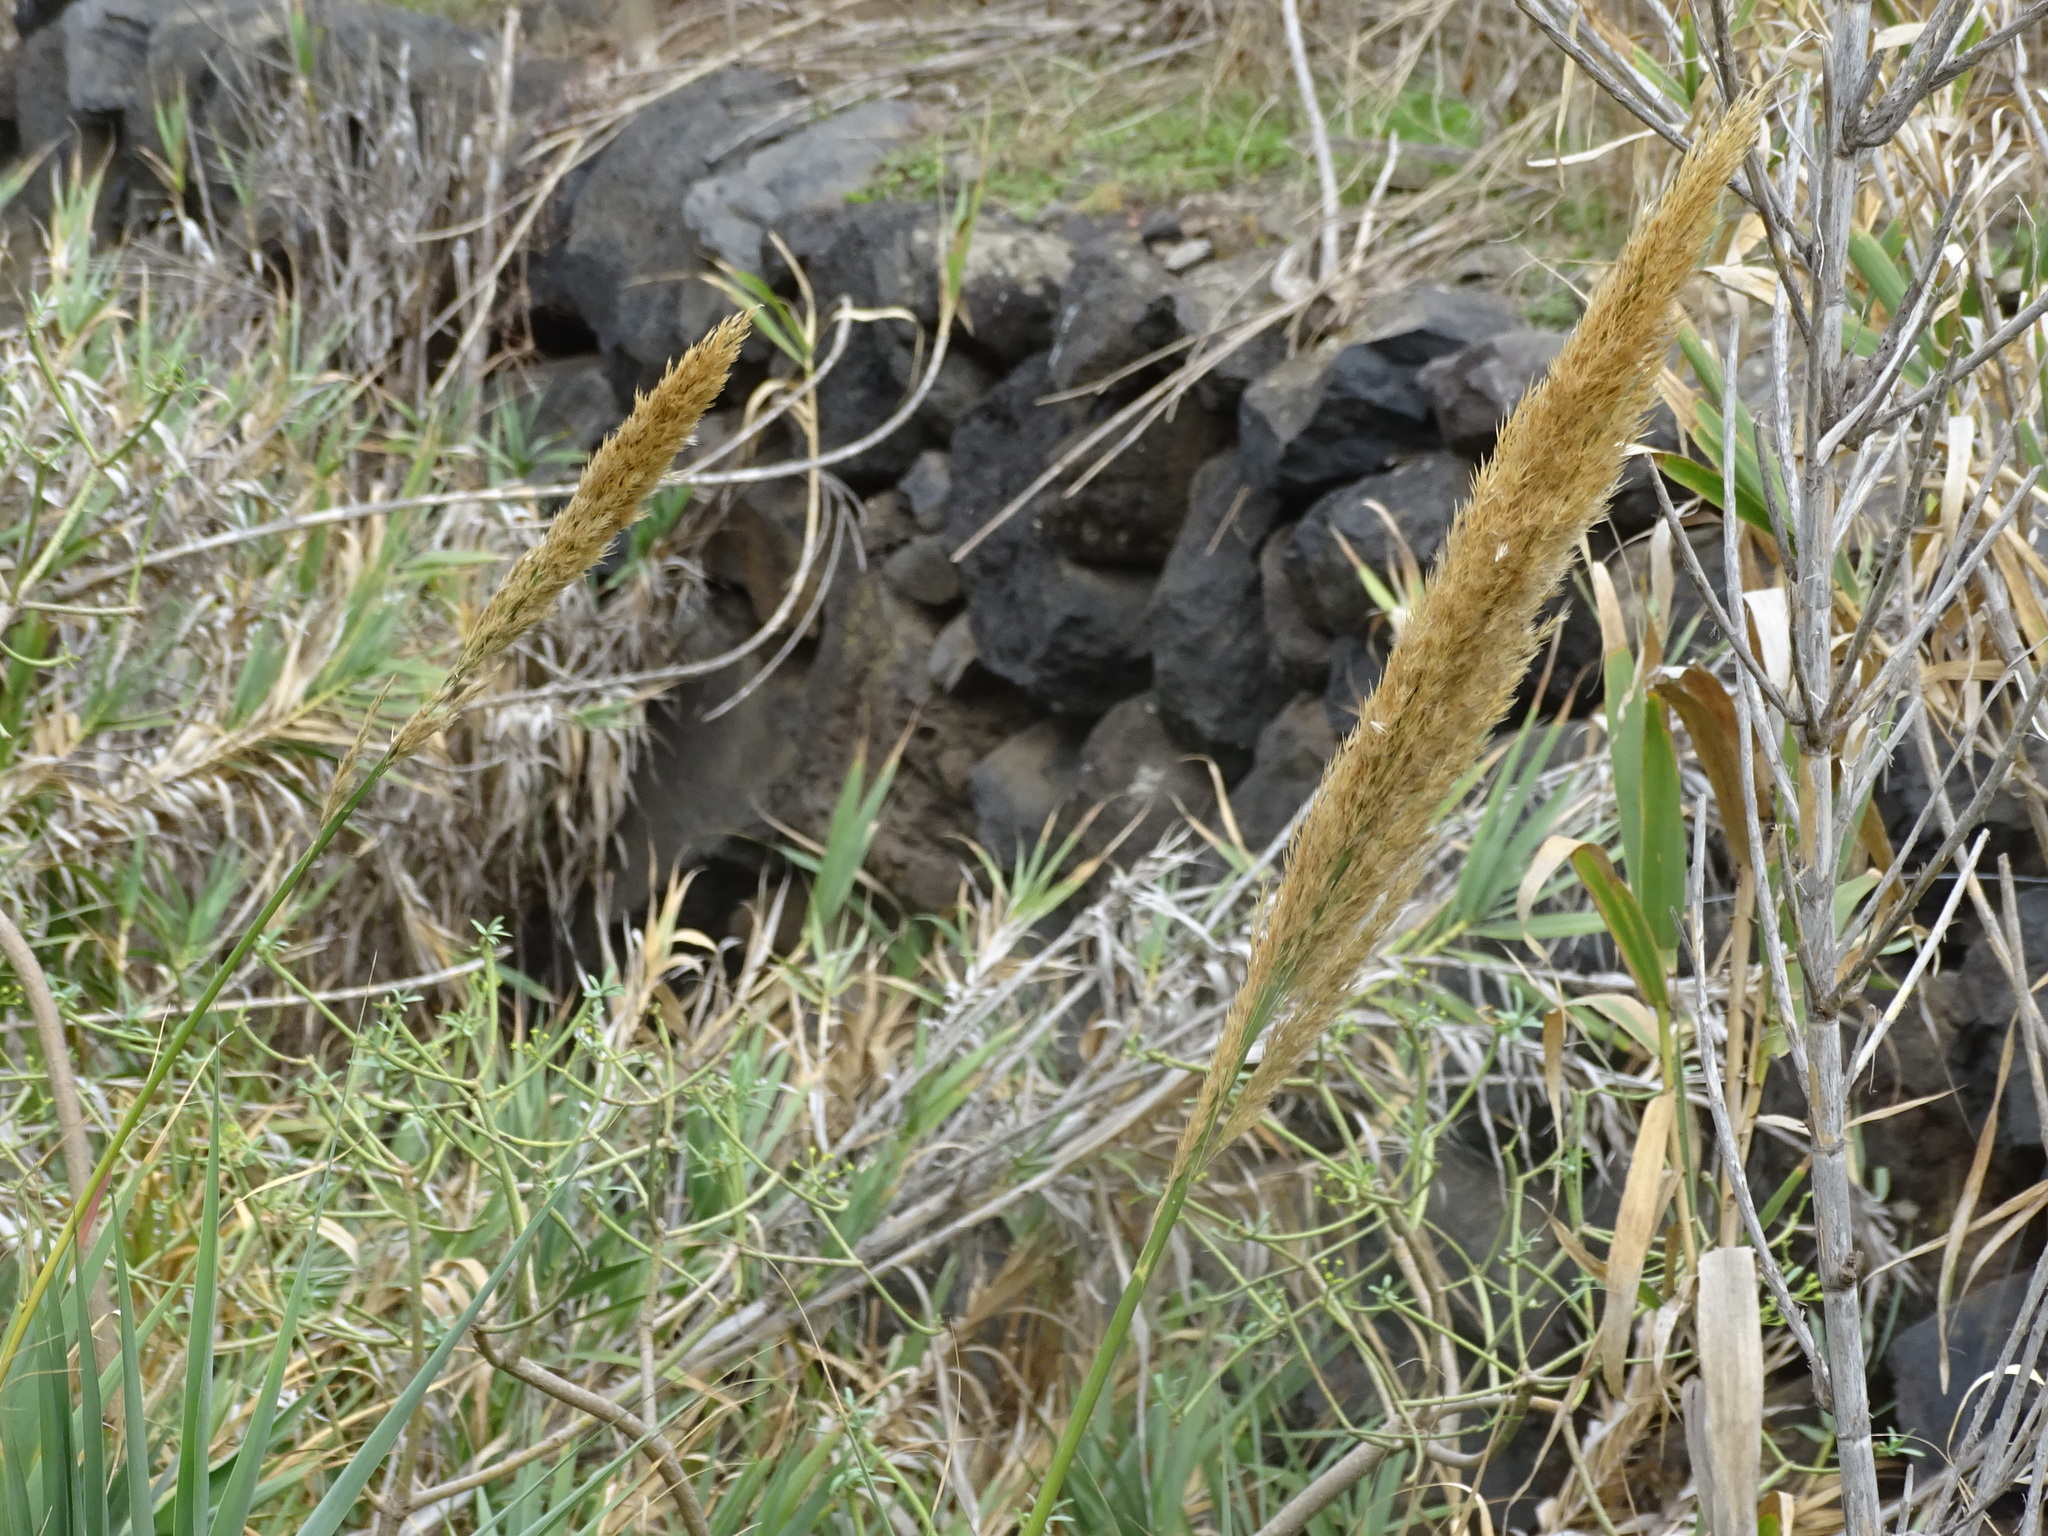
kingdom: Plantae
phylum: Tracheophyta
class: Liliopsida
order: Poales
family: Poaceae
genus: Arundo
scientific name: Arundo donax
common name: Giant reed
